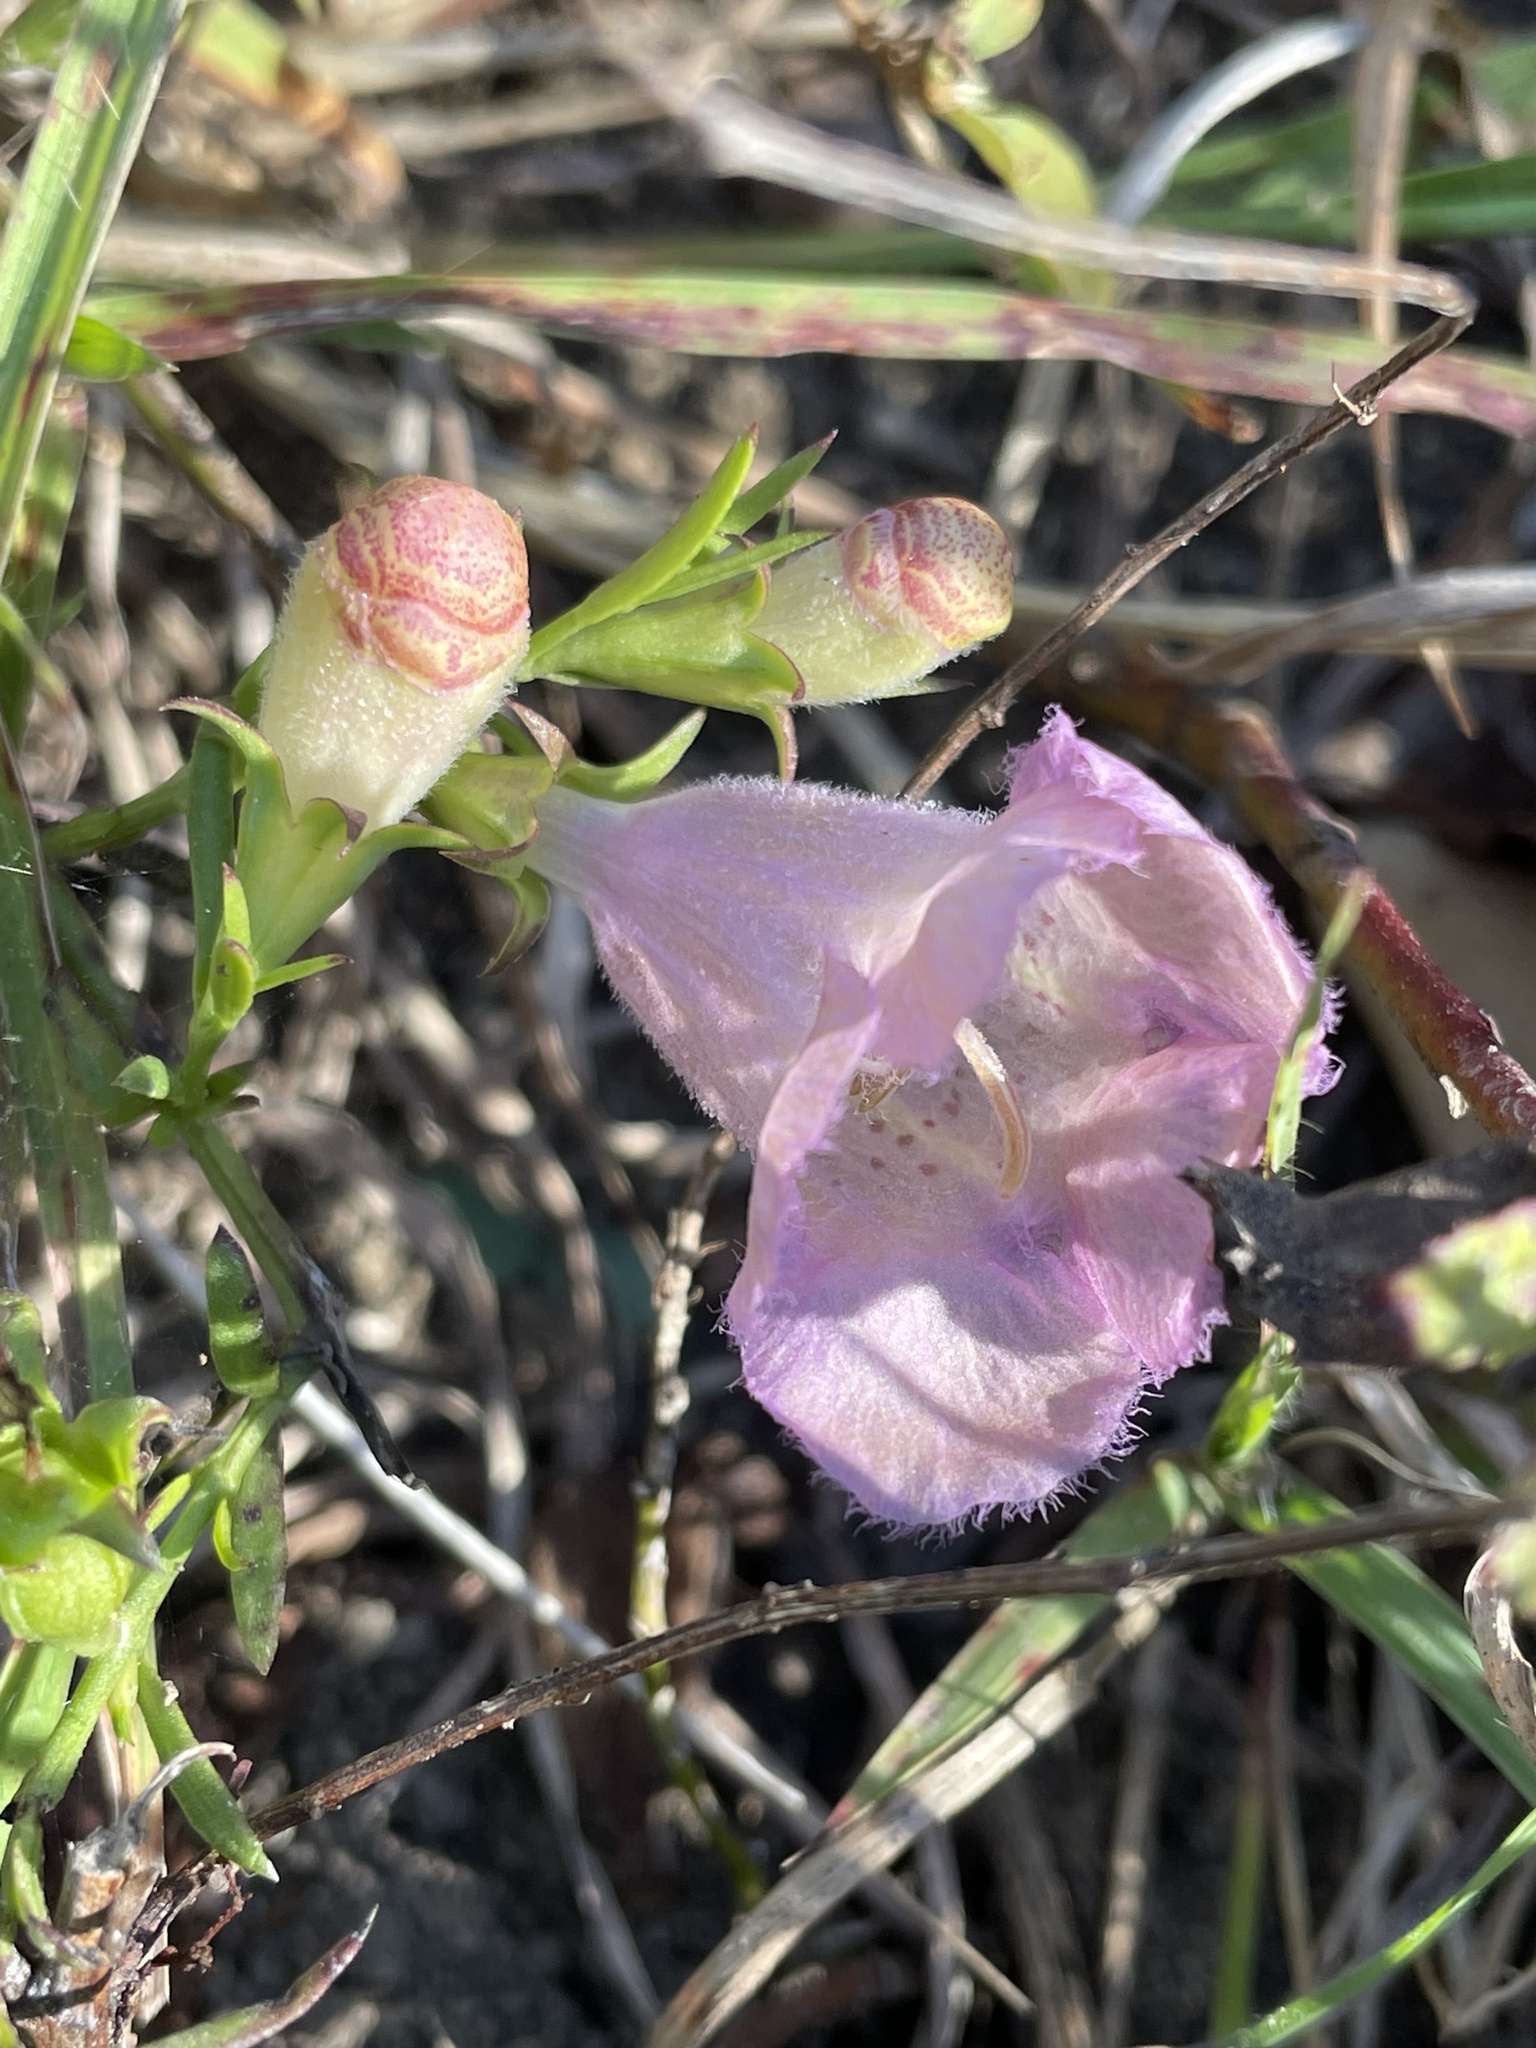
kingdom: Plantae
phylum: Tracheophyta
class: Magnoliopsida
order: Lamiales
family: Orobanchaceae
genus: Agalinis
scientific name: Agalinis heterophylla
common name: Prairie agalinis
